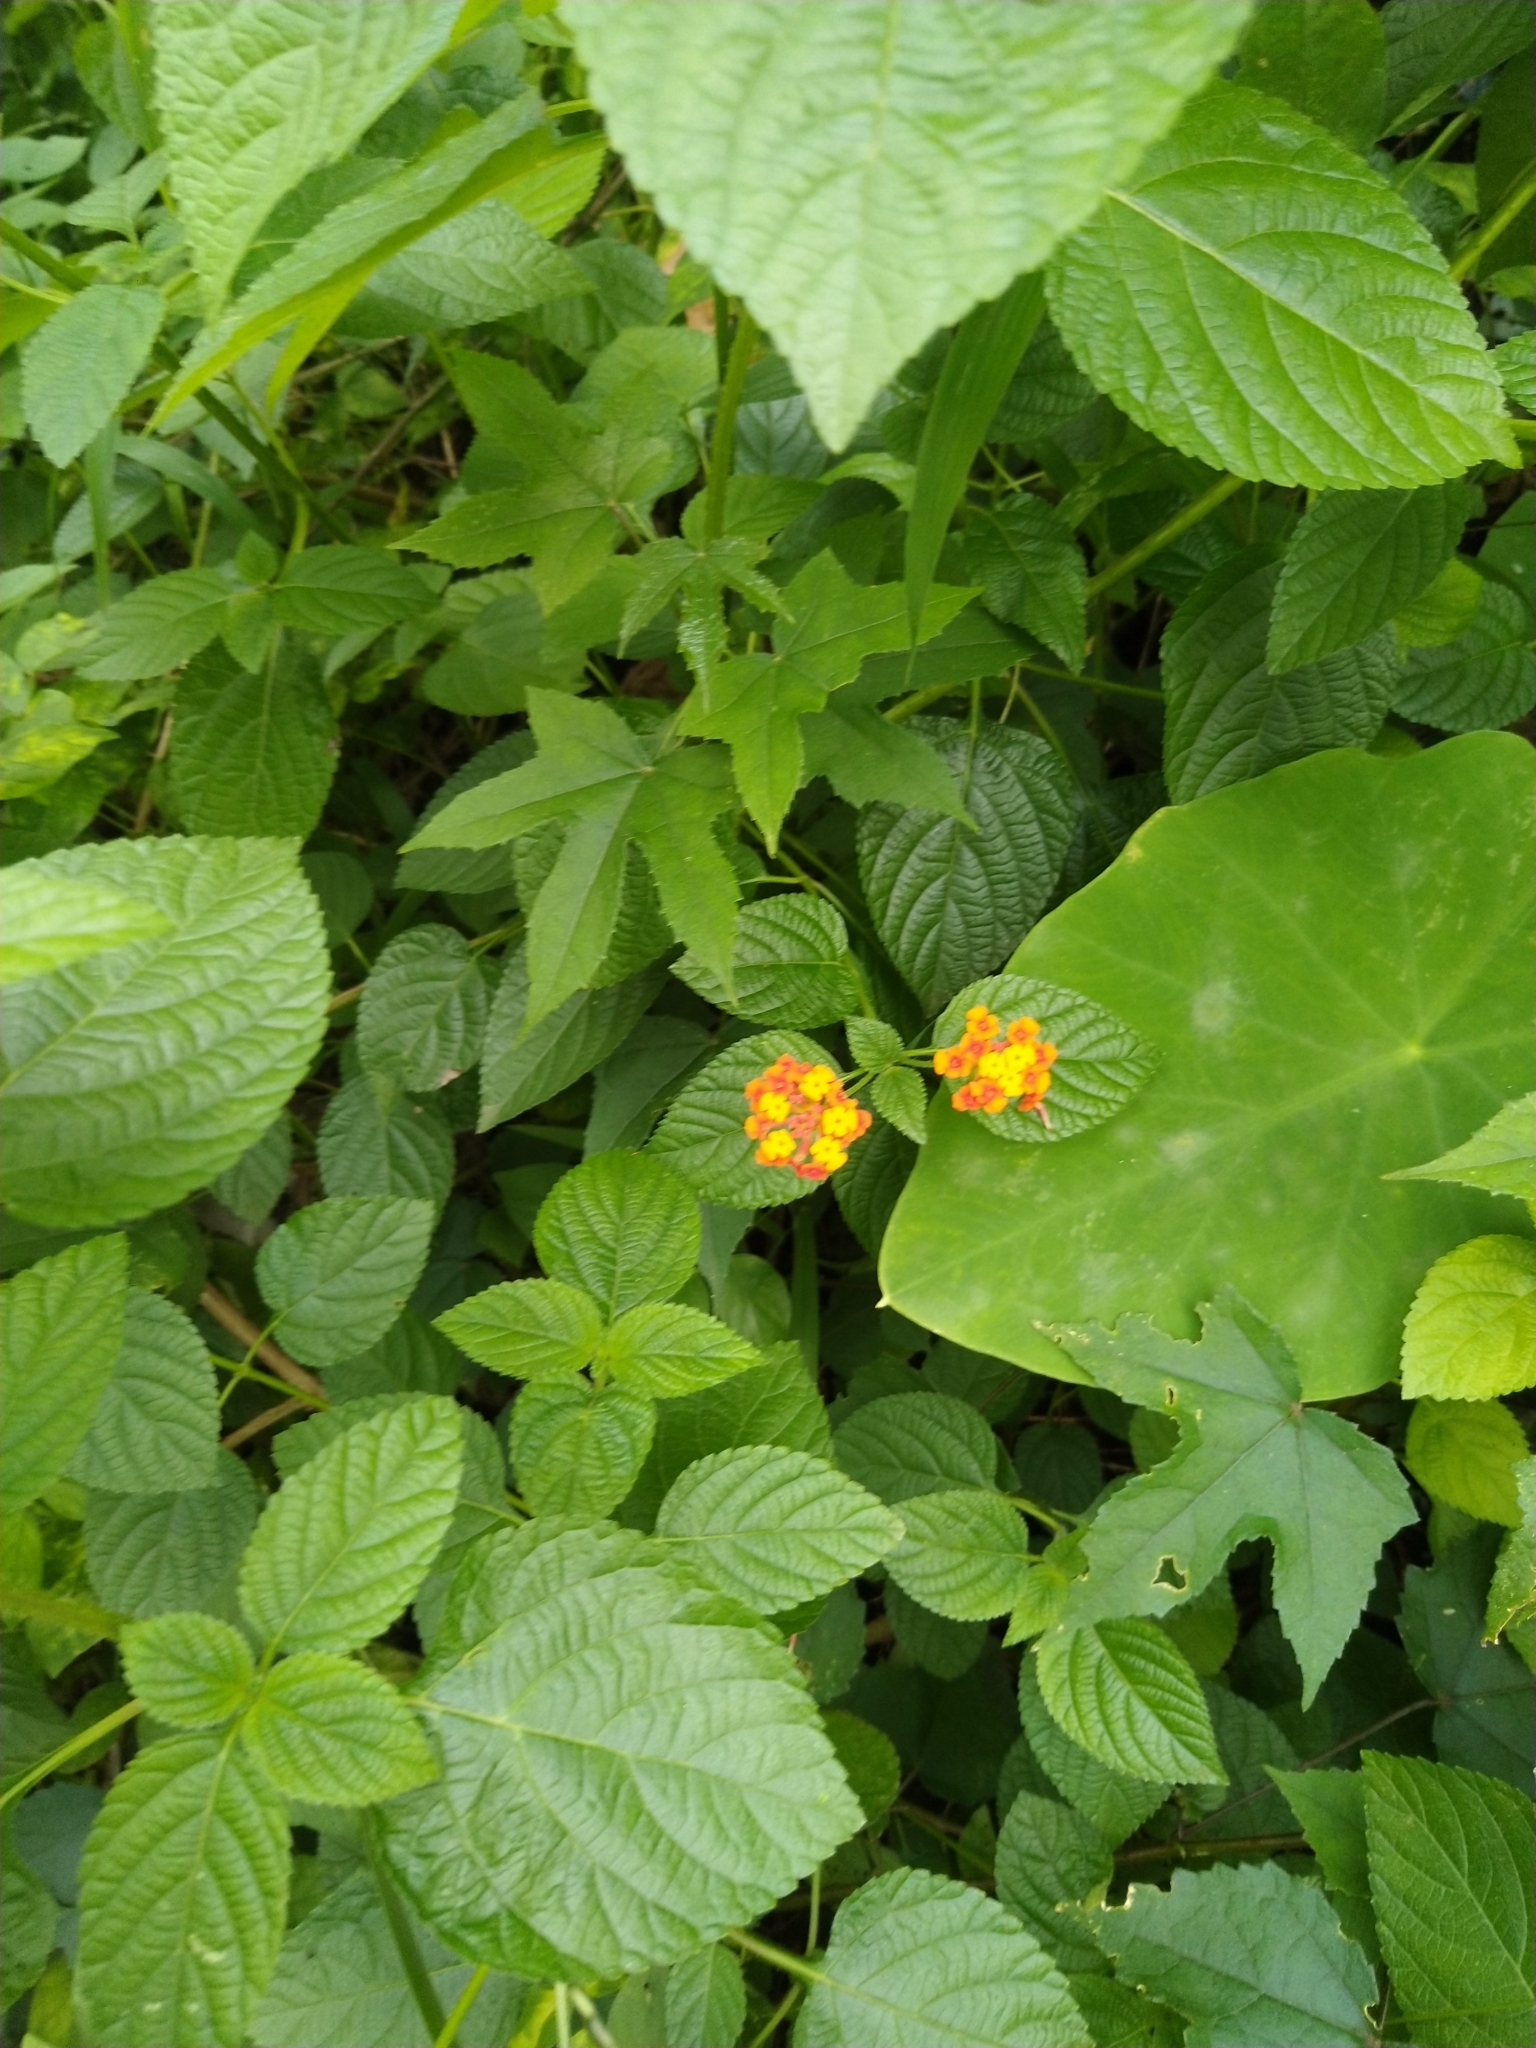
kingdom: Plantae
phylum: Tracheophyta
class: Magnoliopsida
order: Lamiales
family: Verbenaceae
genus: Lantana
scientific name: Lantana camara
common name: Lantana
